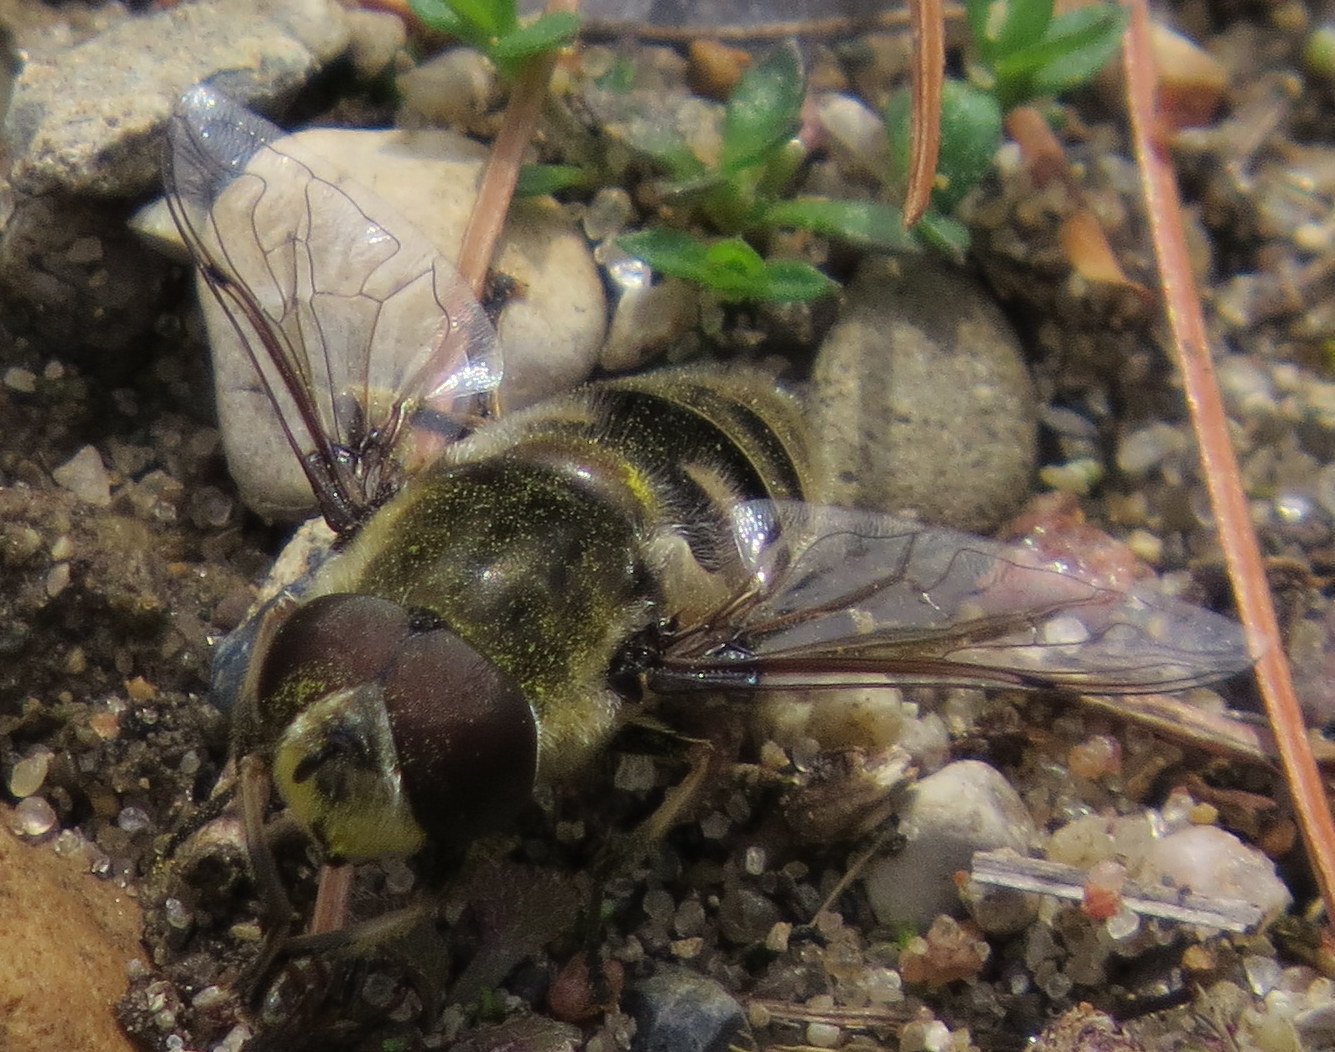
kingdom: Animalia
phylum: Arthropoda
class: Insecta
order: Diptera
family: Syrphidae
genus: Eristalis
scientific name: Eristalis dimidiata
